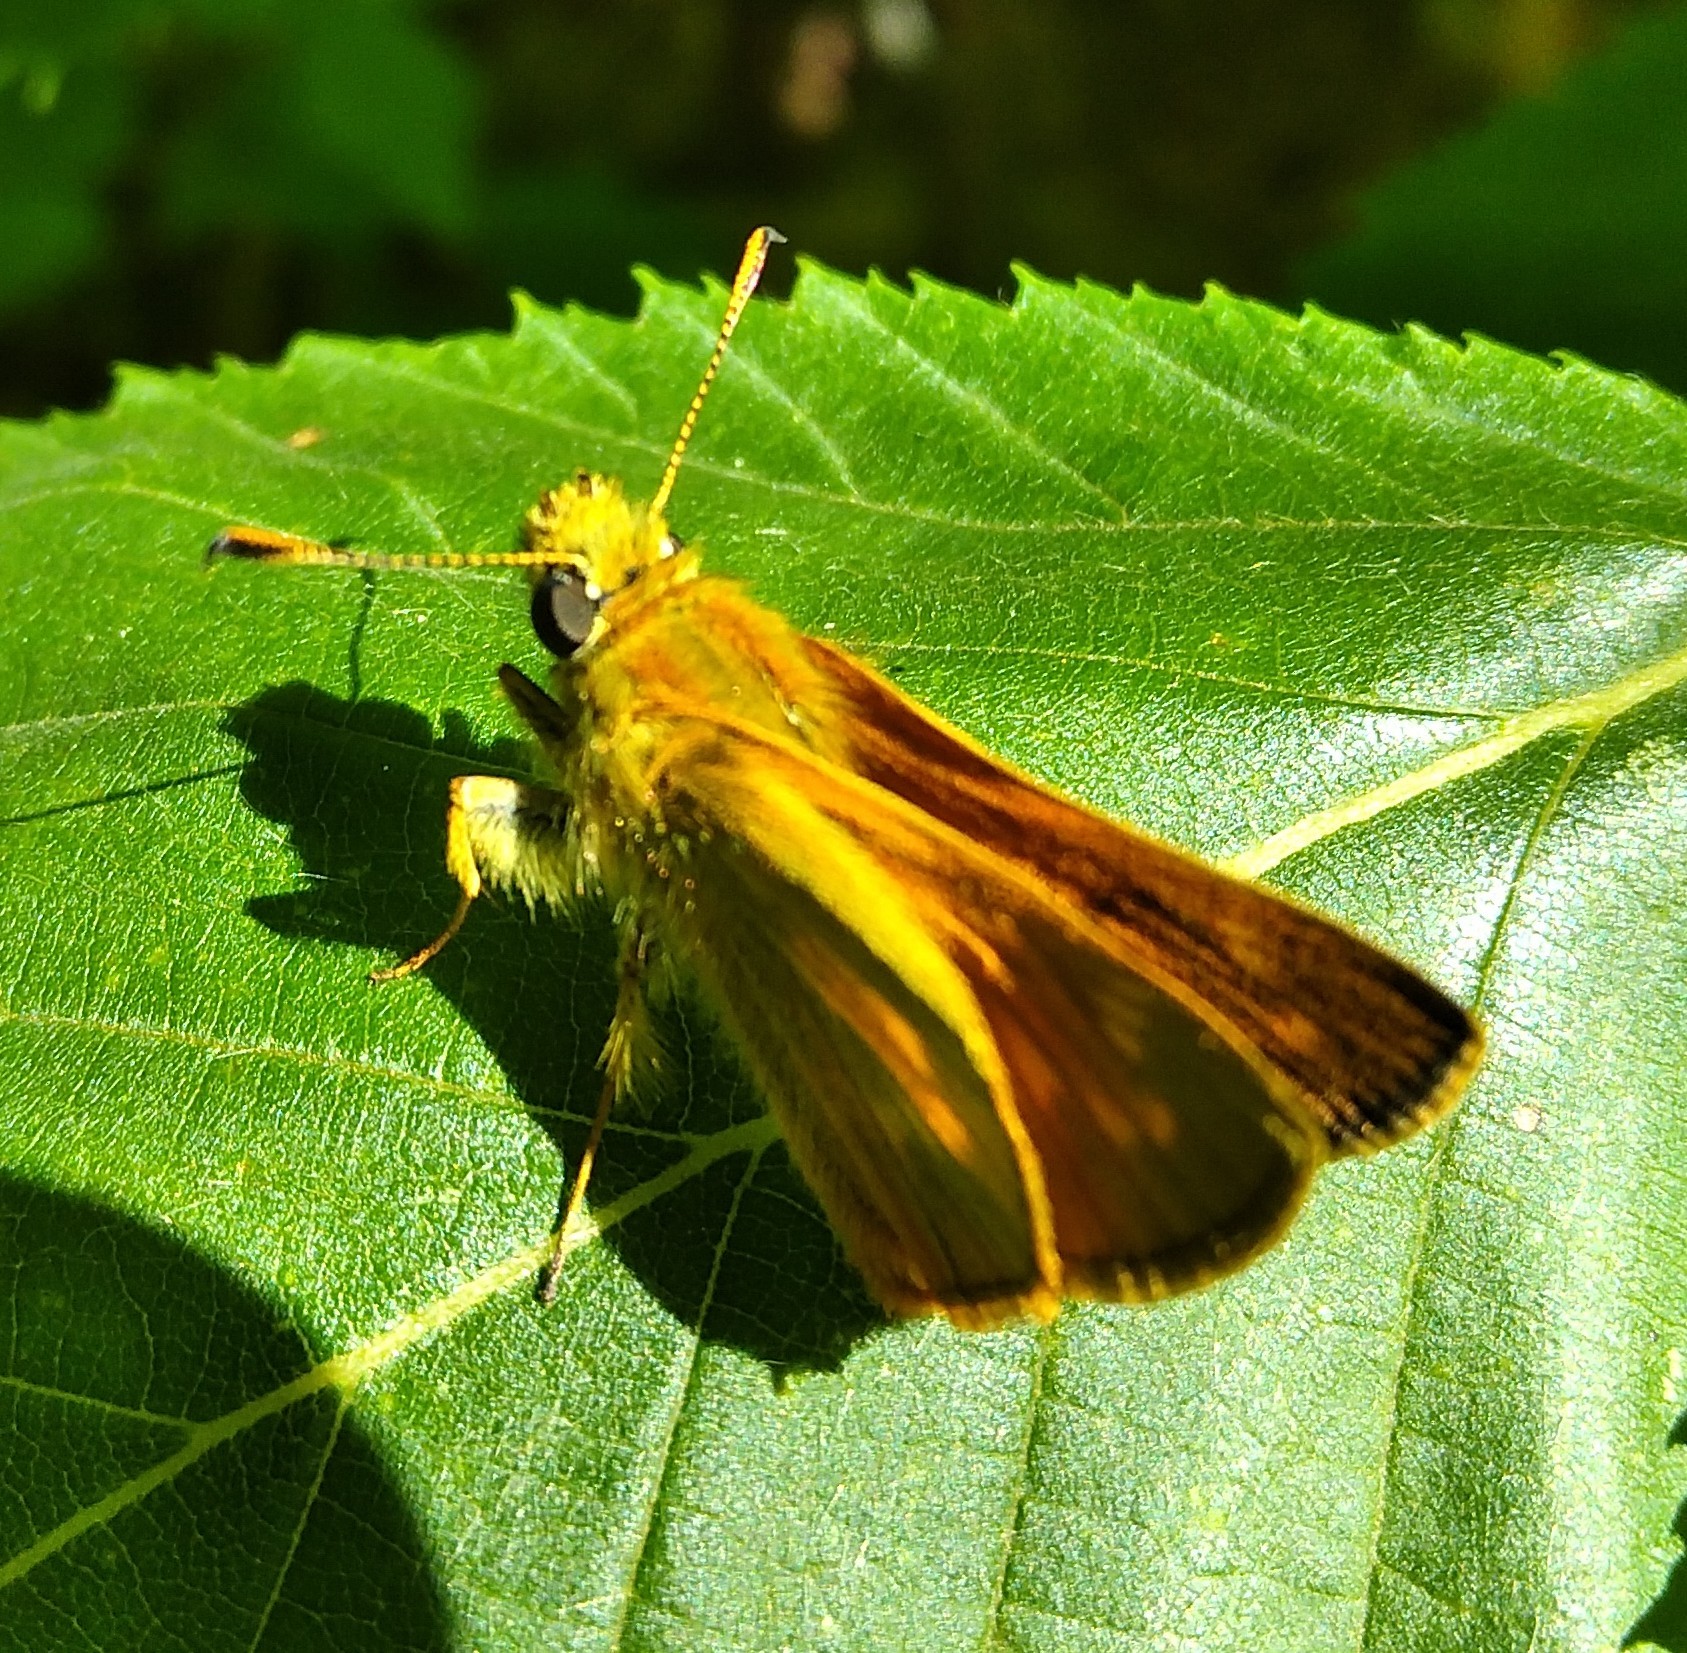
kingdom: Animalia
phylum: Arthropoda
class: Insecta
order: Lepidoptera
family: Hesperiidae
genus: Ochlodes
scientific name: Ochlodes venata
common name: Large skipper
